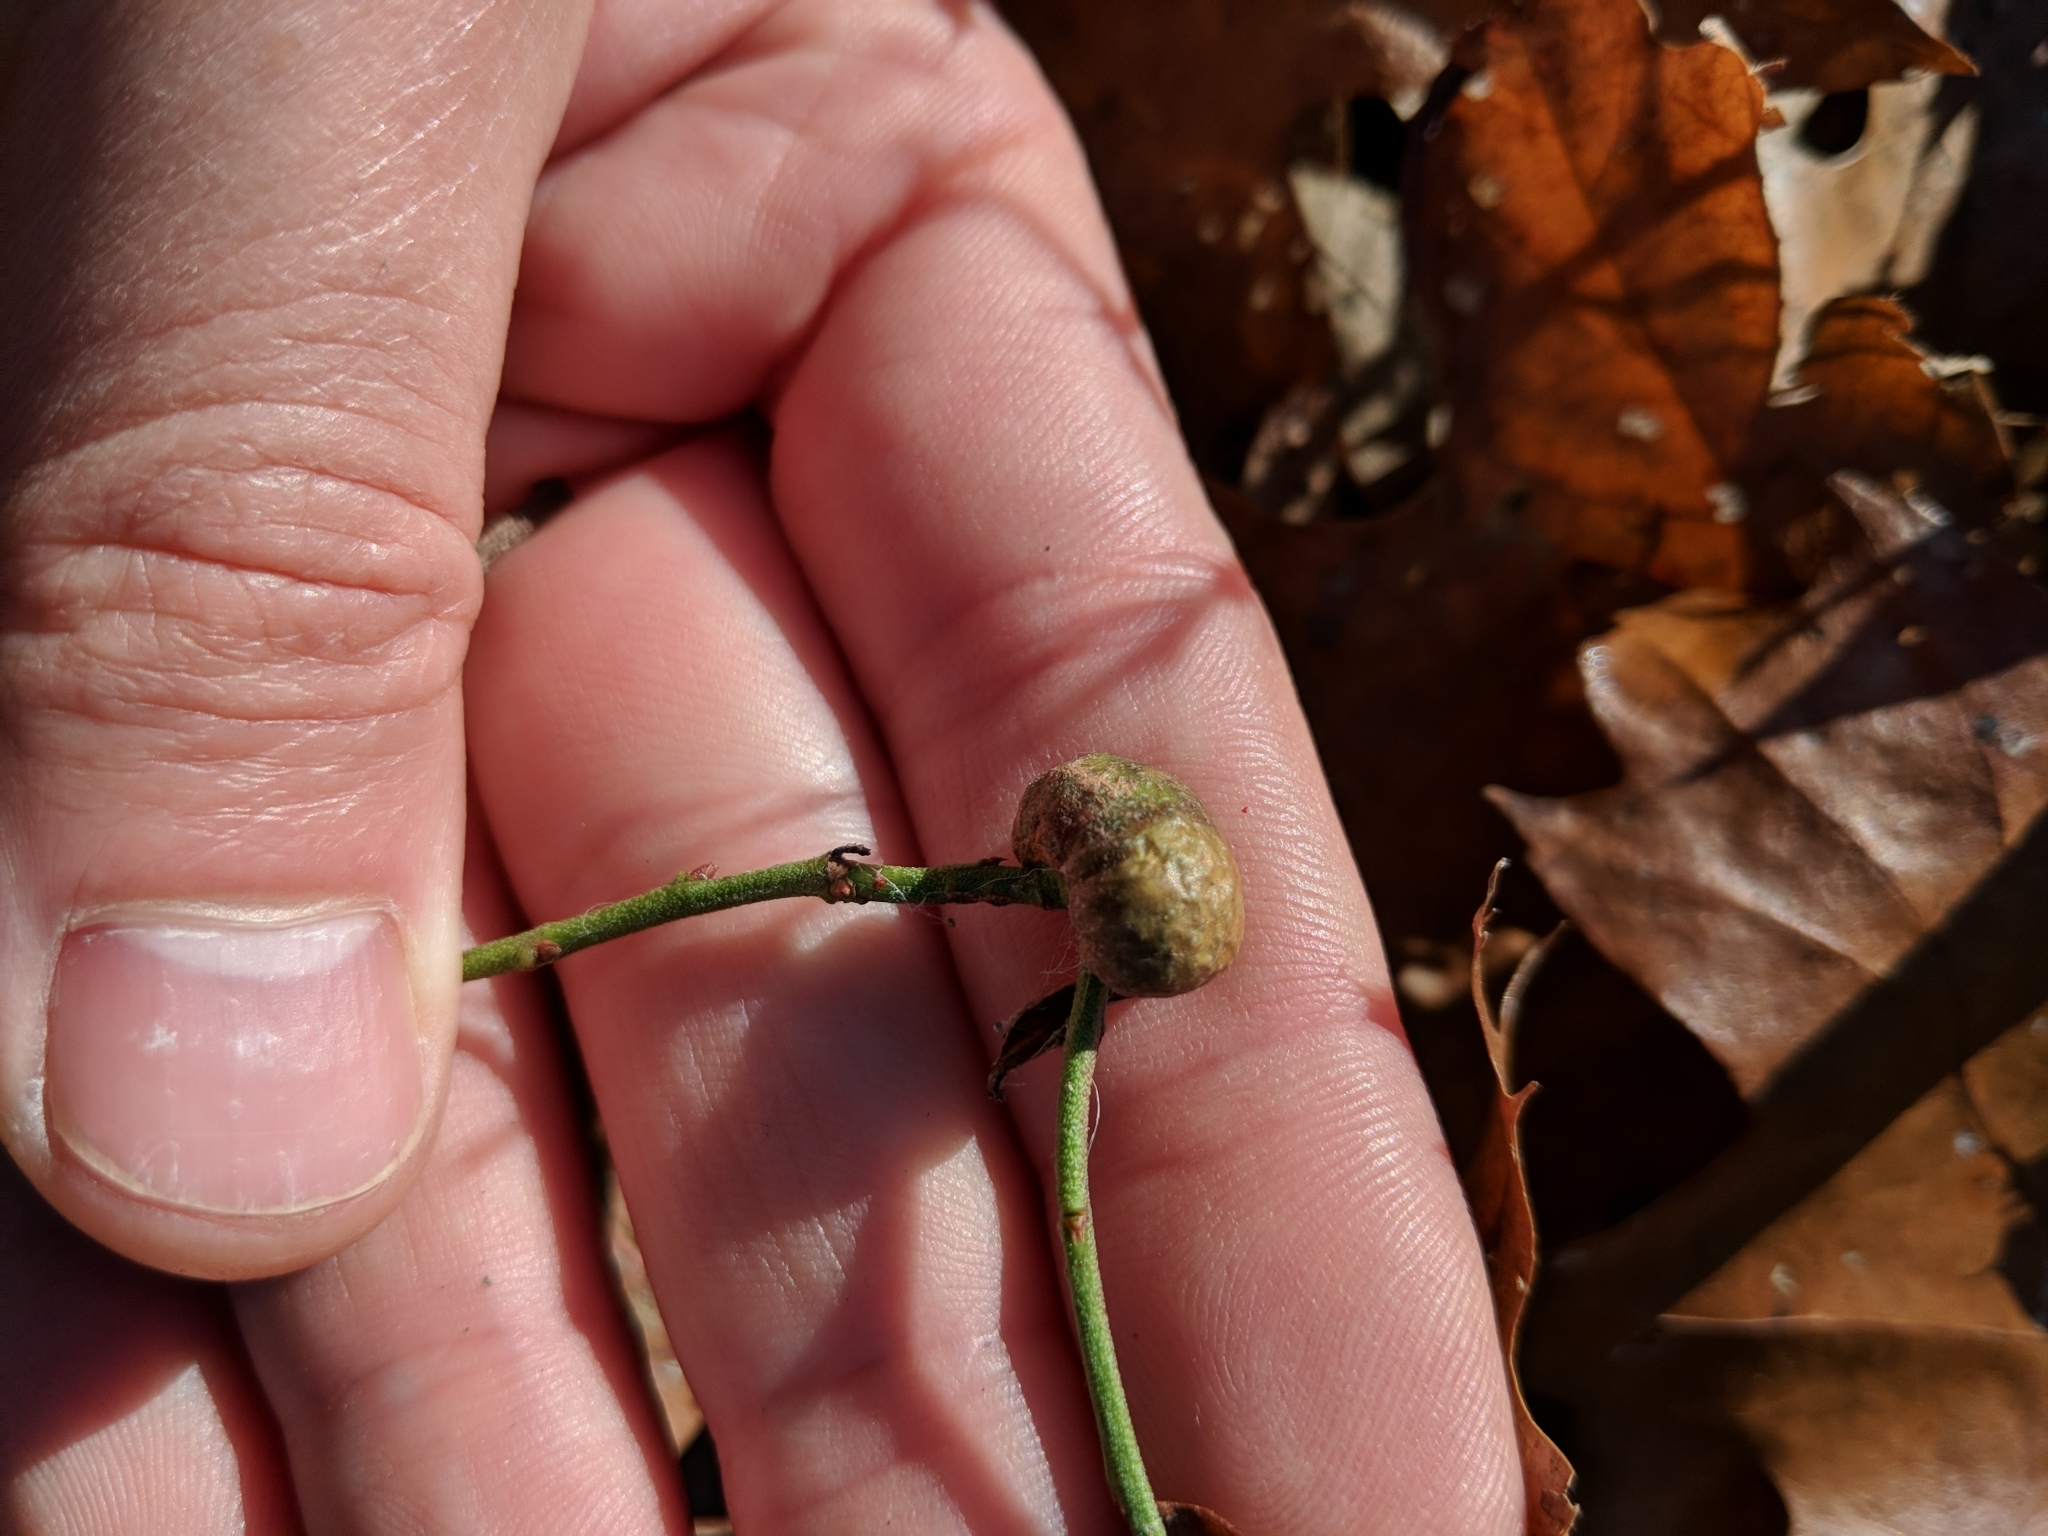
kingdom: Animalia
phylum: Arthropoda
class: Insecta
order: Hymenoptera
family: Pteromalidae
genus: Hemadas
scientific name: Hemadas nubilipennis
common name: Blueberry stem gall wasp
